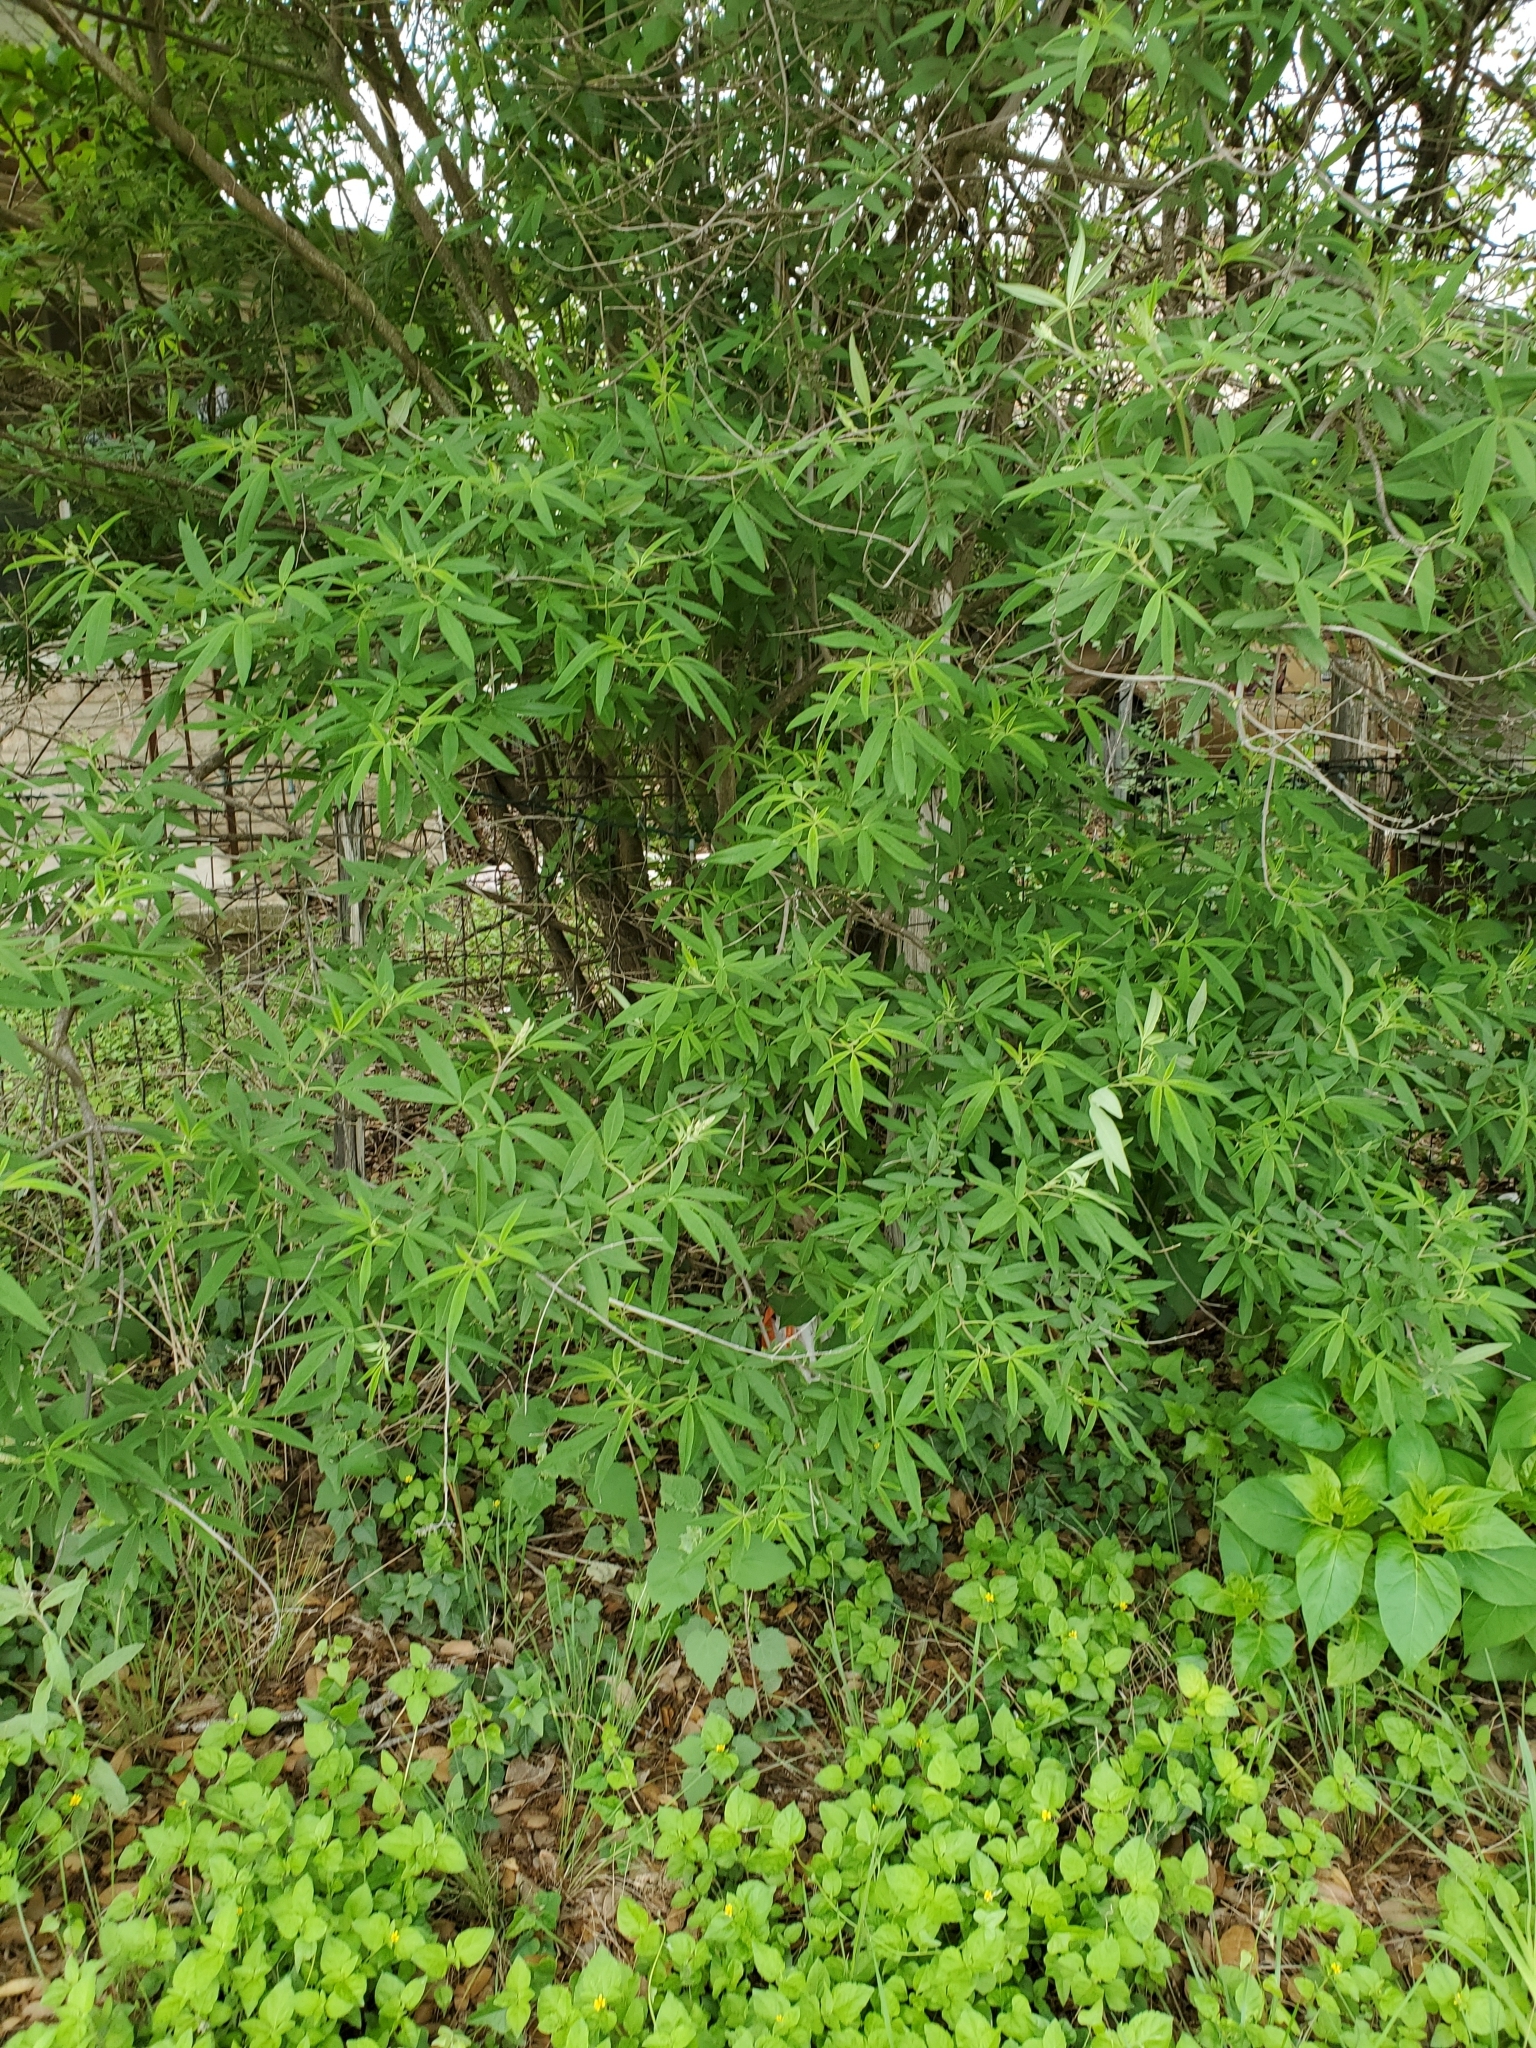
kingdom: Plantae
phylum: Tracheophyta
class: Magnoliopsida
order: Lamiales
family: Lamiaceae
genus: Vitex
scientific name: Vitex agnus-castus
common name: Chasteberry
